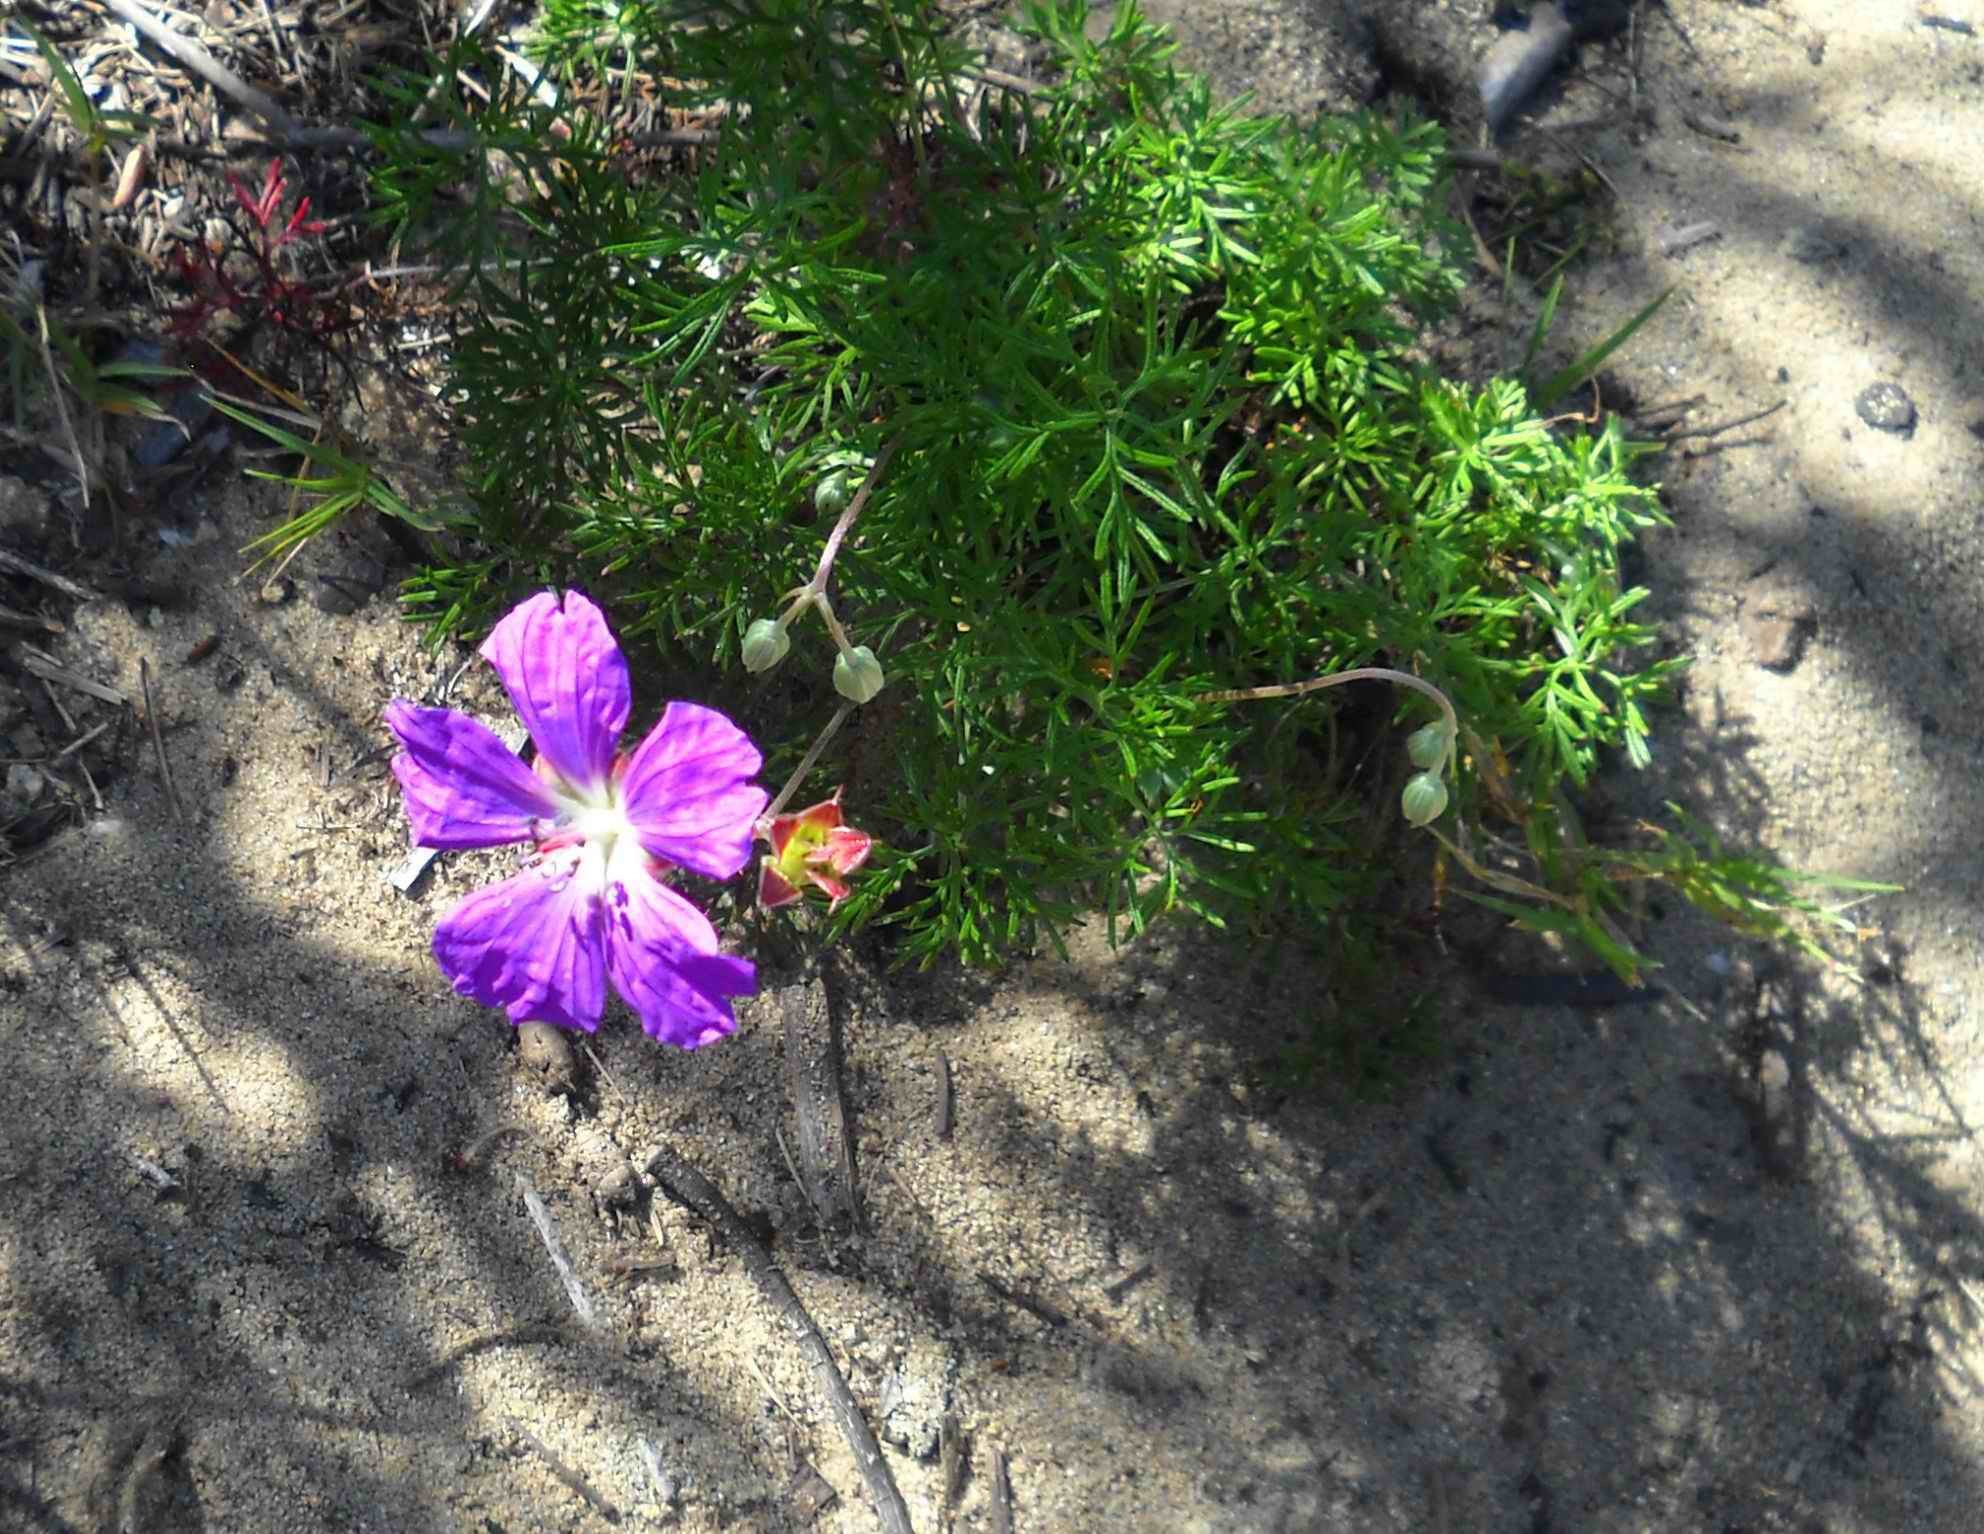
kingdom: Plantae
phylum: Tracheophyta
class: Magnoliopsida
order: Geraniales
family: Geraniaceae
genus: Geranium
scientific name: Geranium incanum
